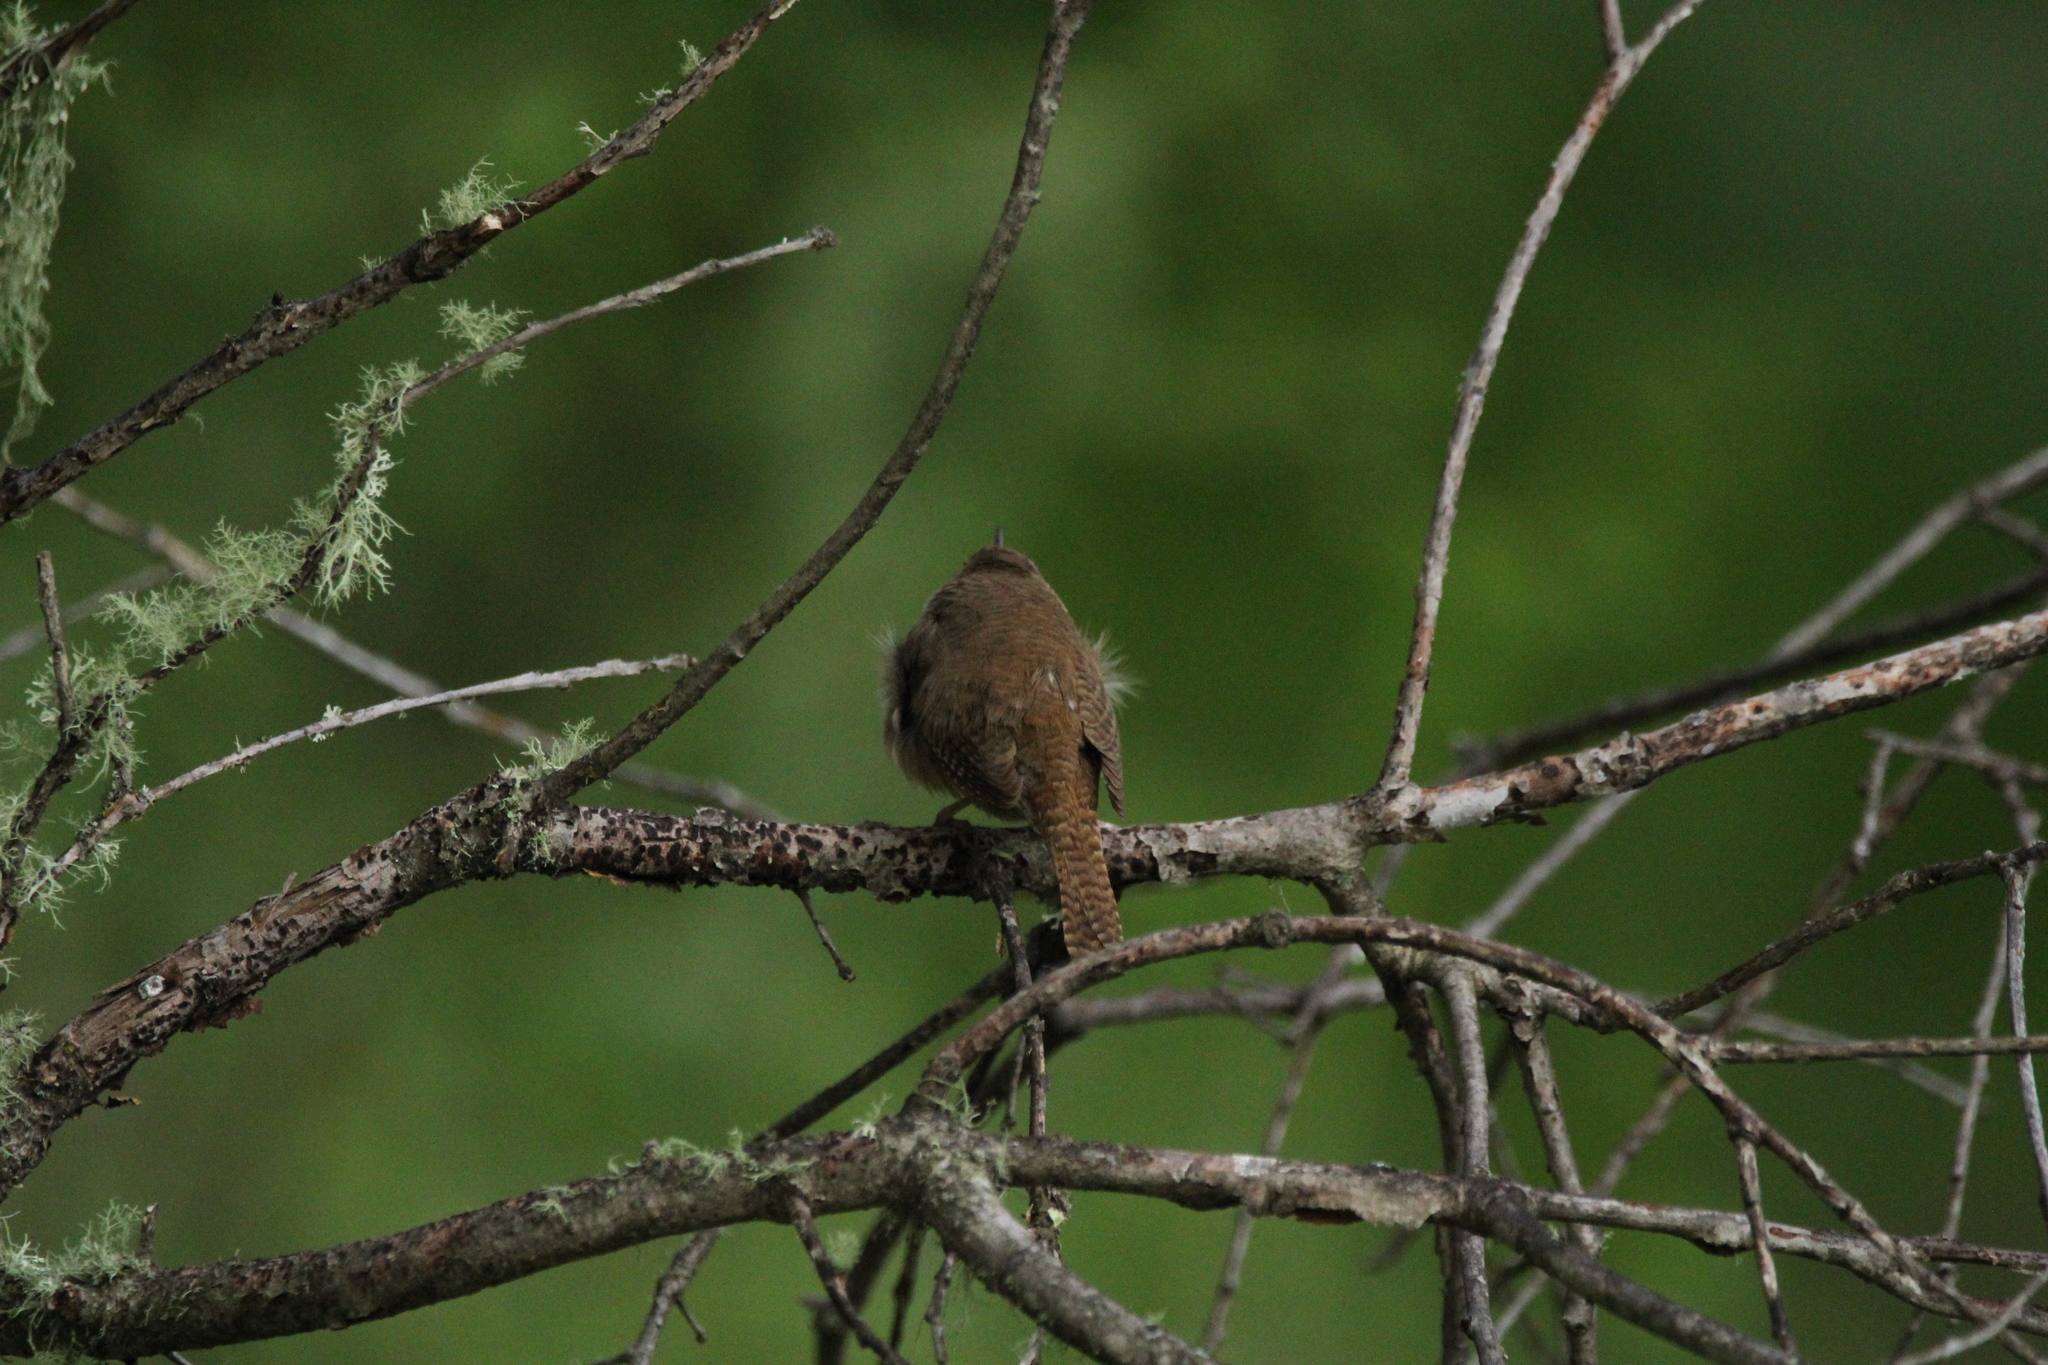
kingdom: Animalia
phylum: Chordata
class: Aves
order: Passeriformes
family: Troglodytidae
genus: Troglodytes
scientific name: Troglodytes aedon
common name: House wren
